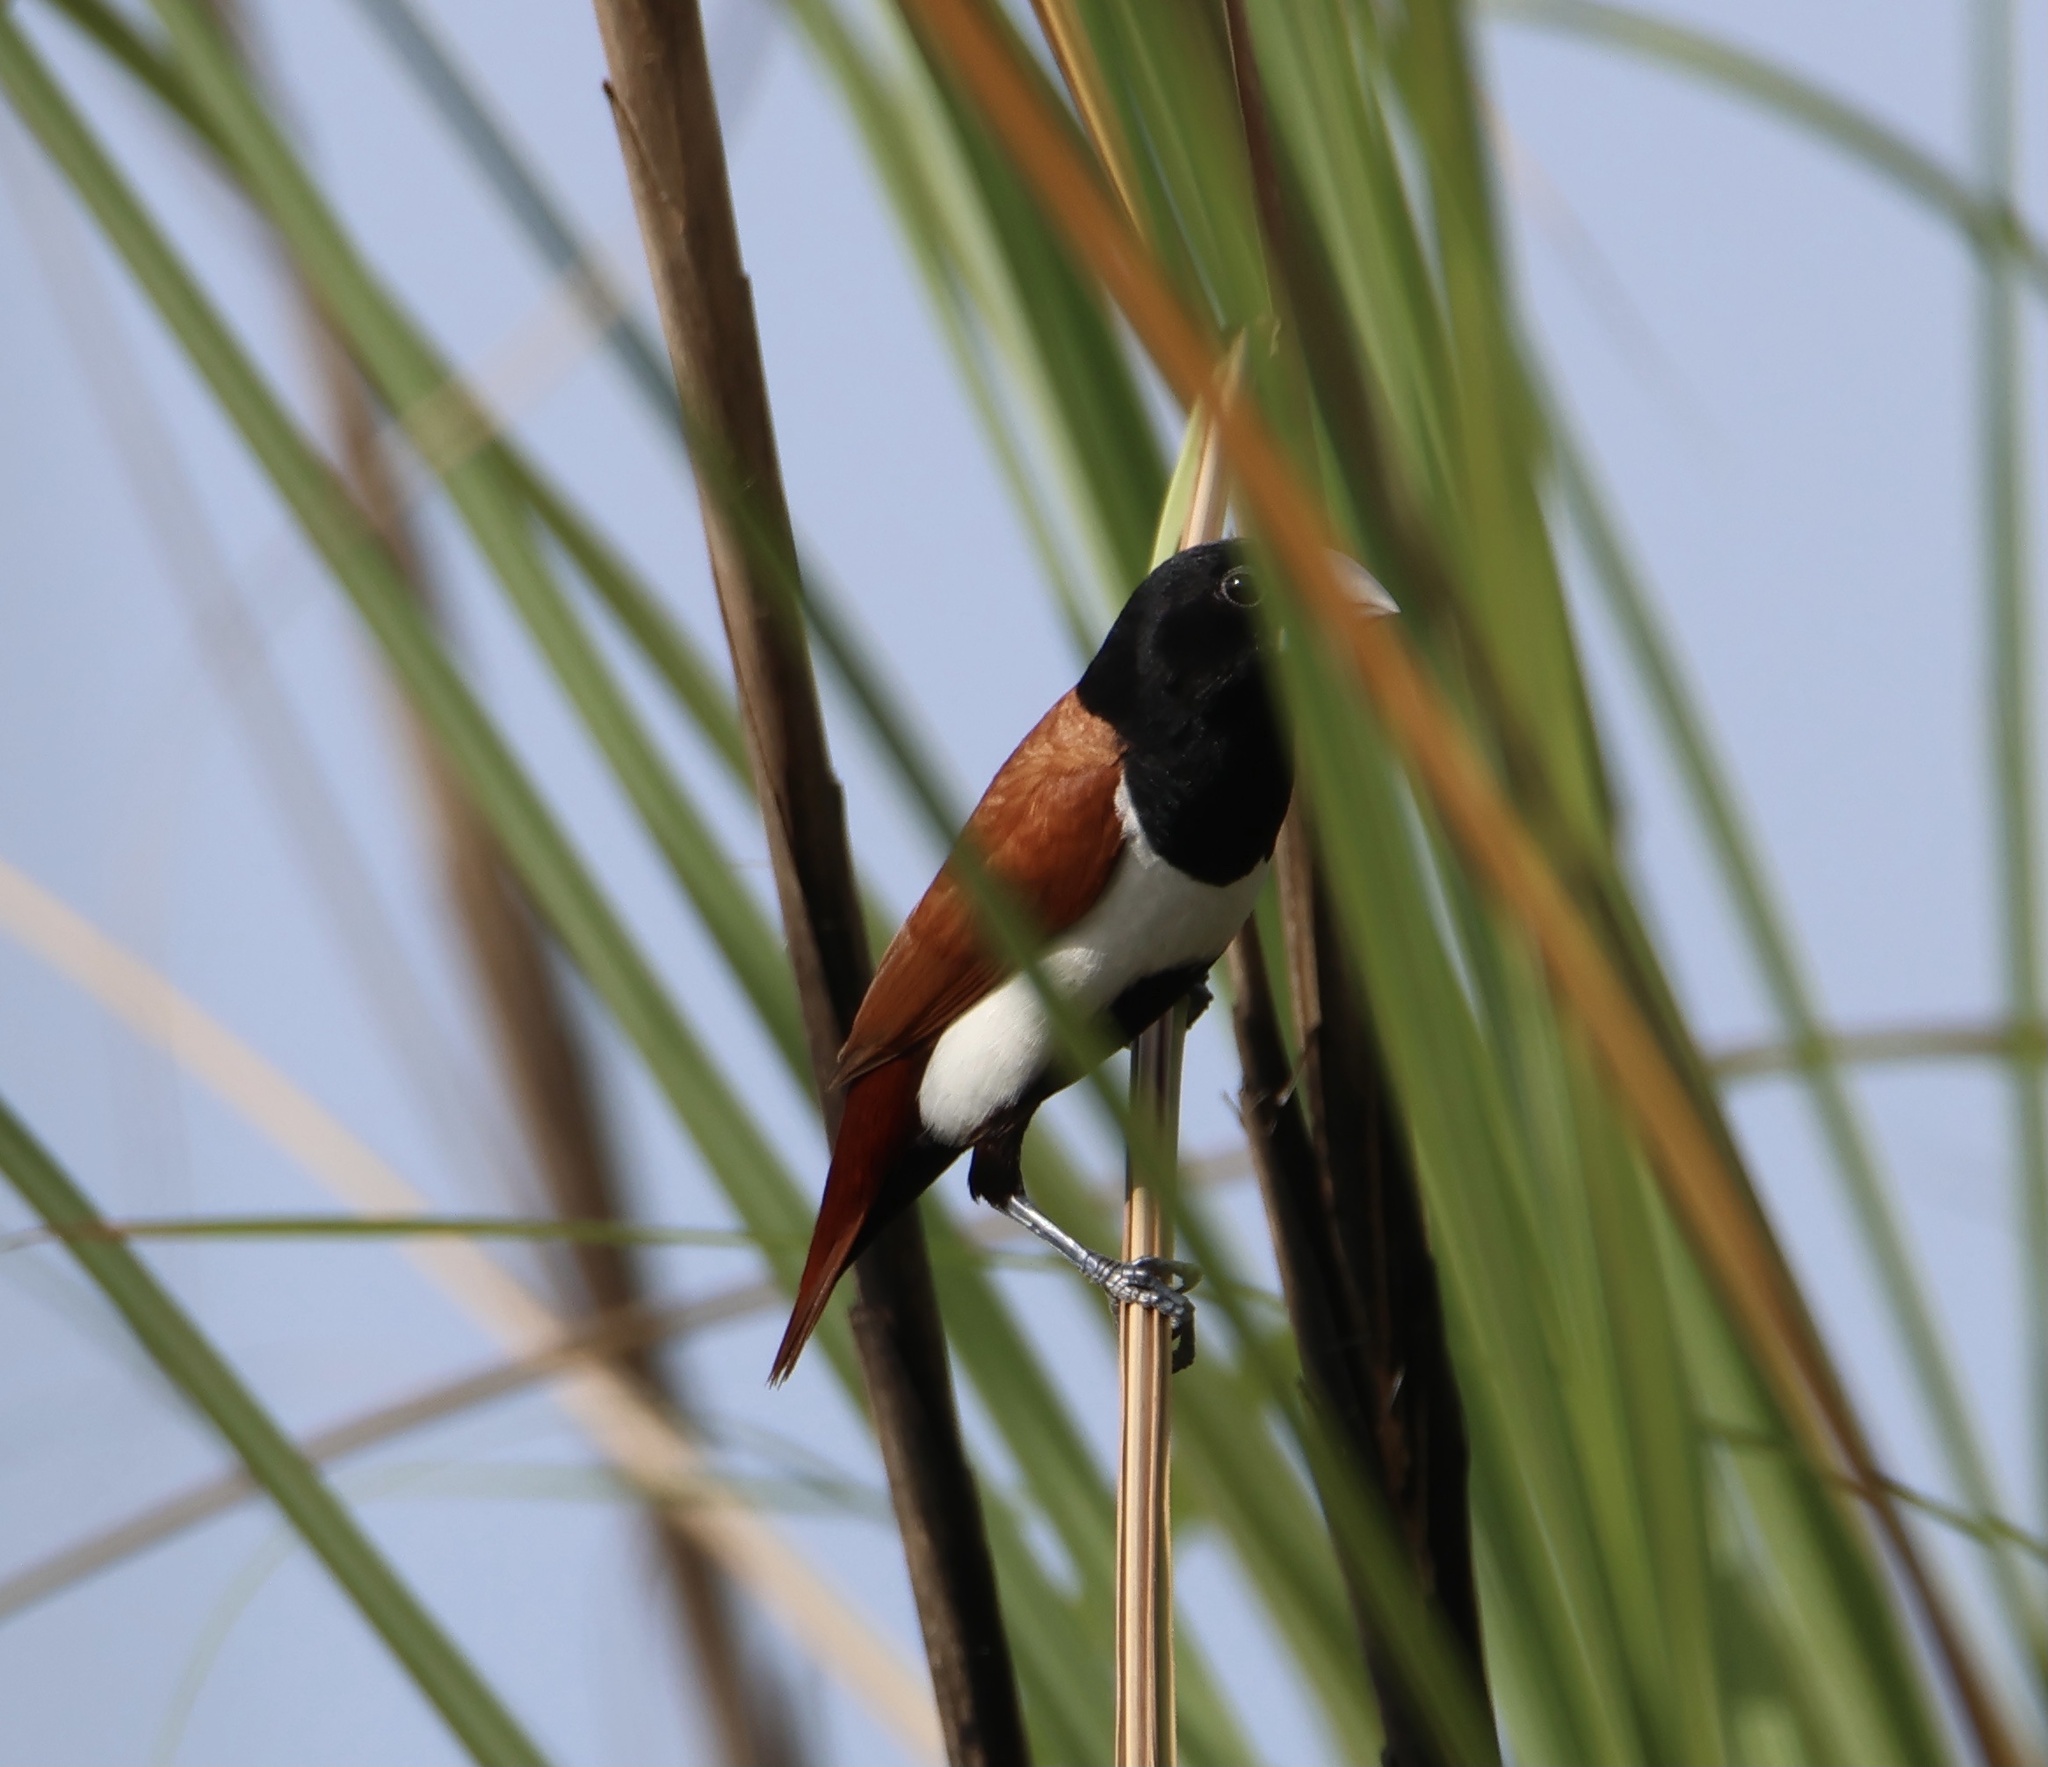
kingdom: Animalia
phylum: Chordata
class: Aves
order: Passeriformes
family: Estrildidae
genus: Lonchura
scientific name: Lonchura malacca
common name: Tricolored munia
